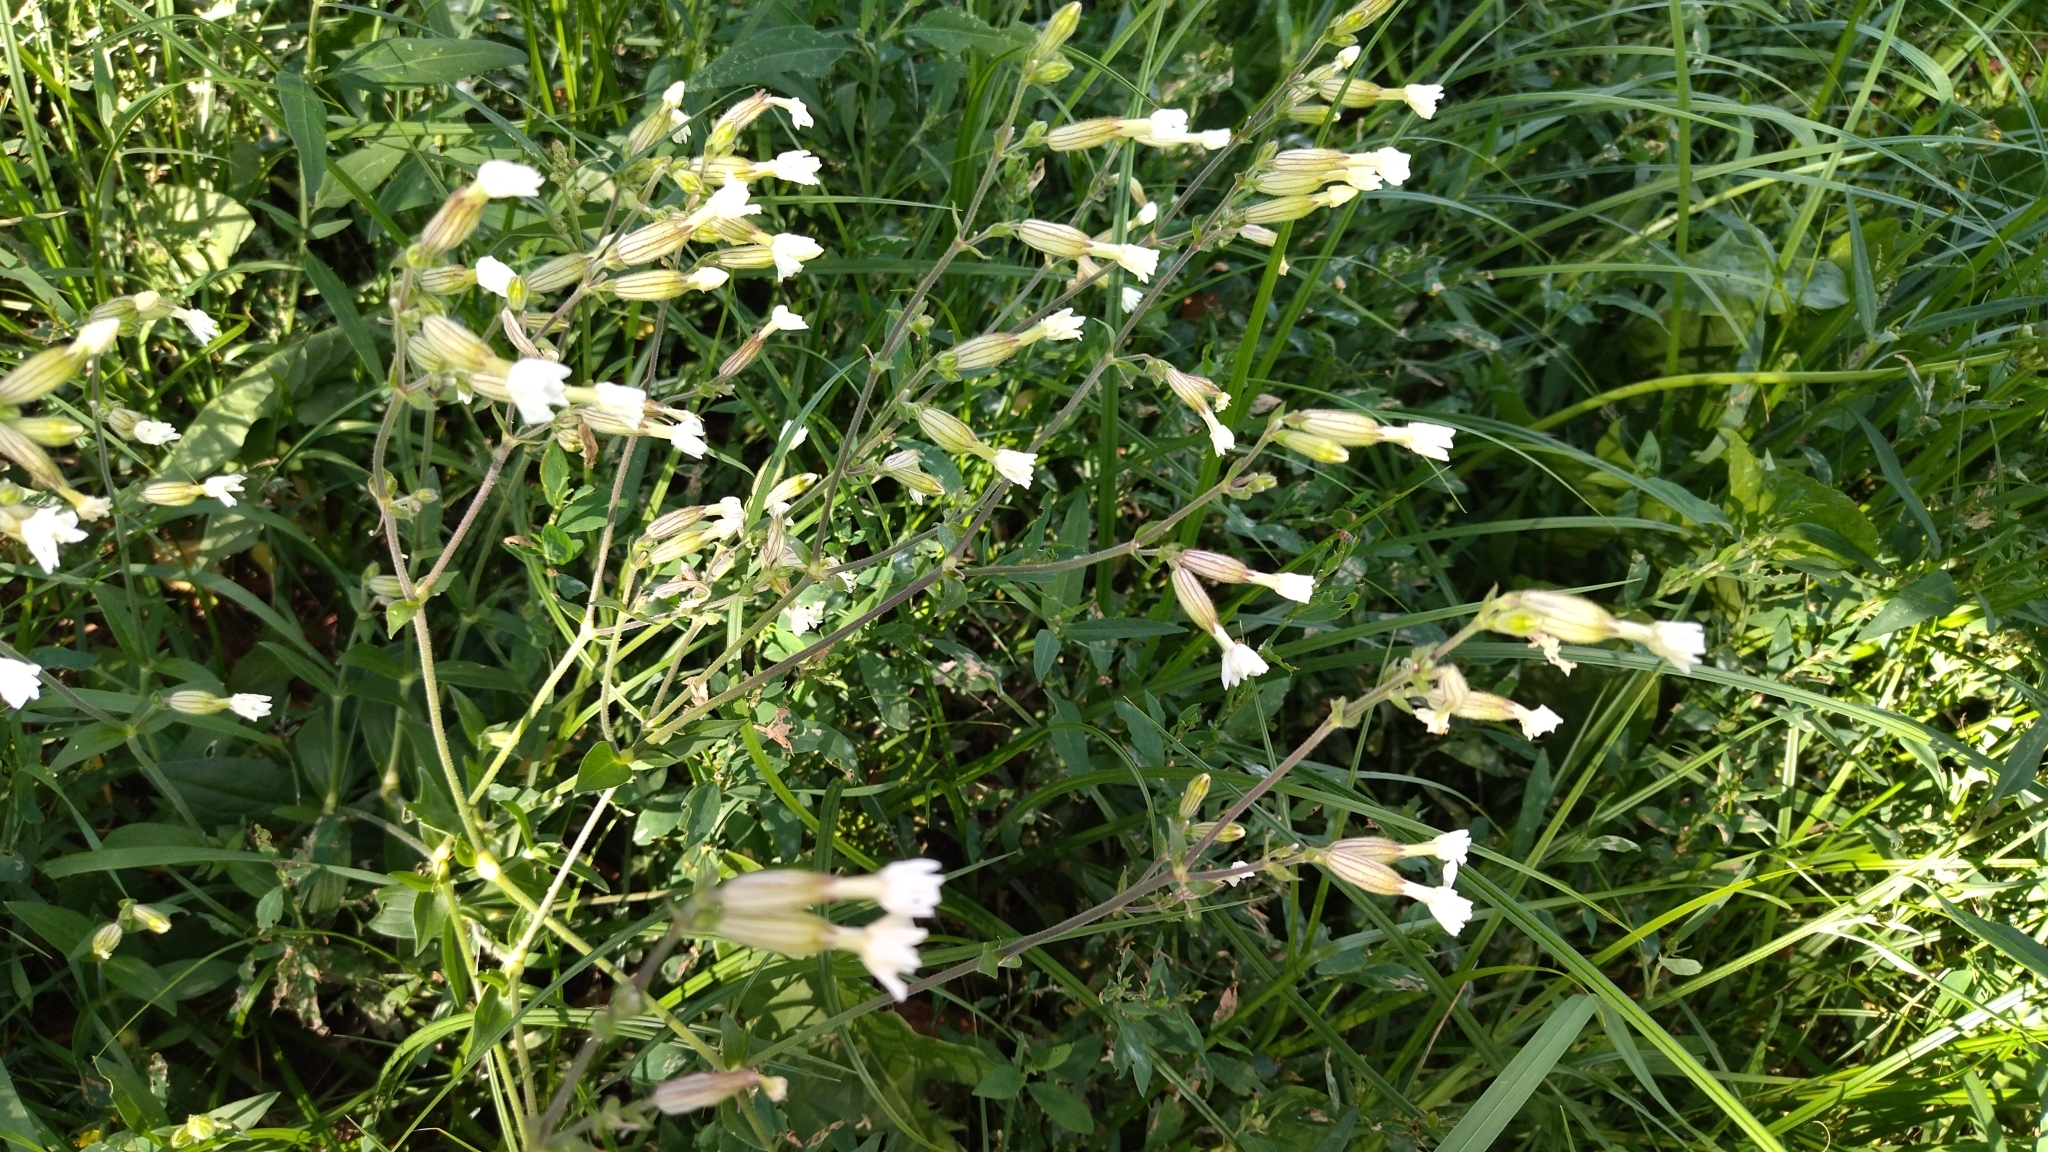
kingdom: Plantae
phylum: Tracheophyta
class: Magnoliopsida
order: Caryophyllales
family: Caryophyllaceae
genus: Silene
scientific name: Silene latifolia
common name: White campion
